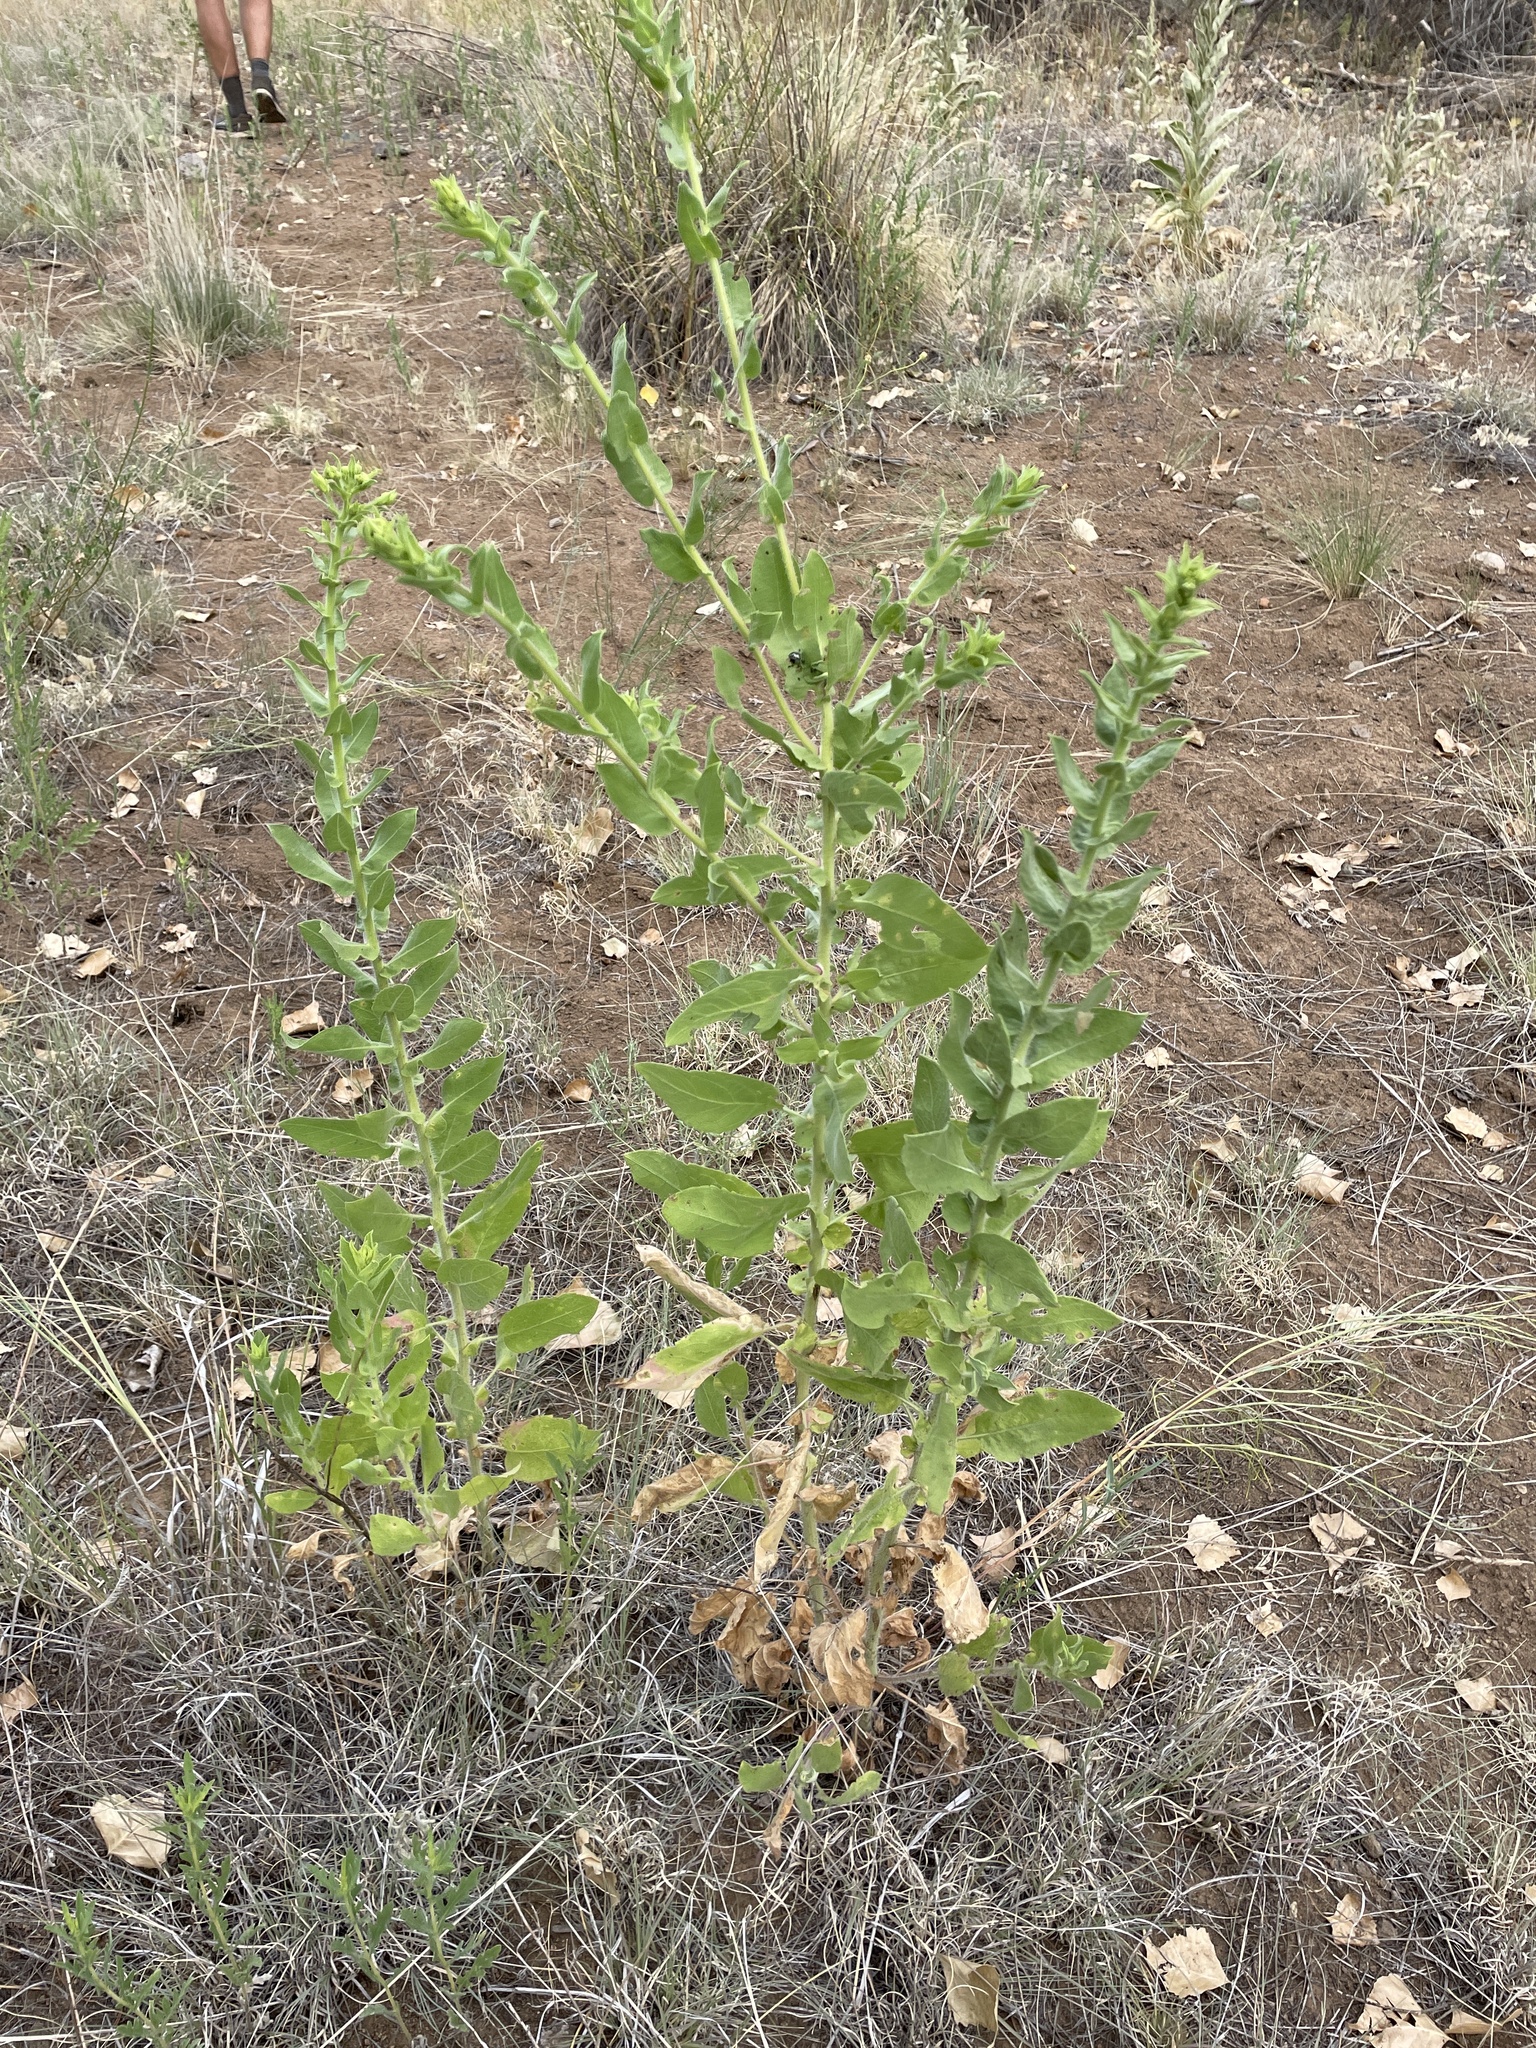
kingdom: Plantae
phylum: Tracheophyta
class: Magnoliopsida
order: Asterales
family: Asteraceae
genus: Heterotheca
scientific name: Heterotheca subaxillaris
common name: Camphorweed
